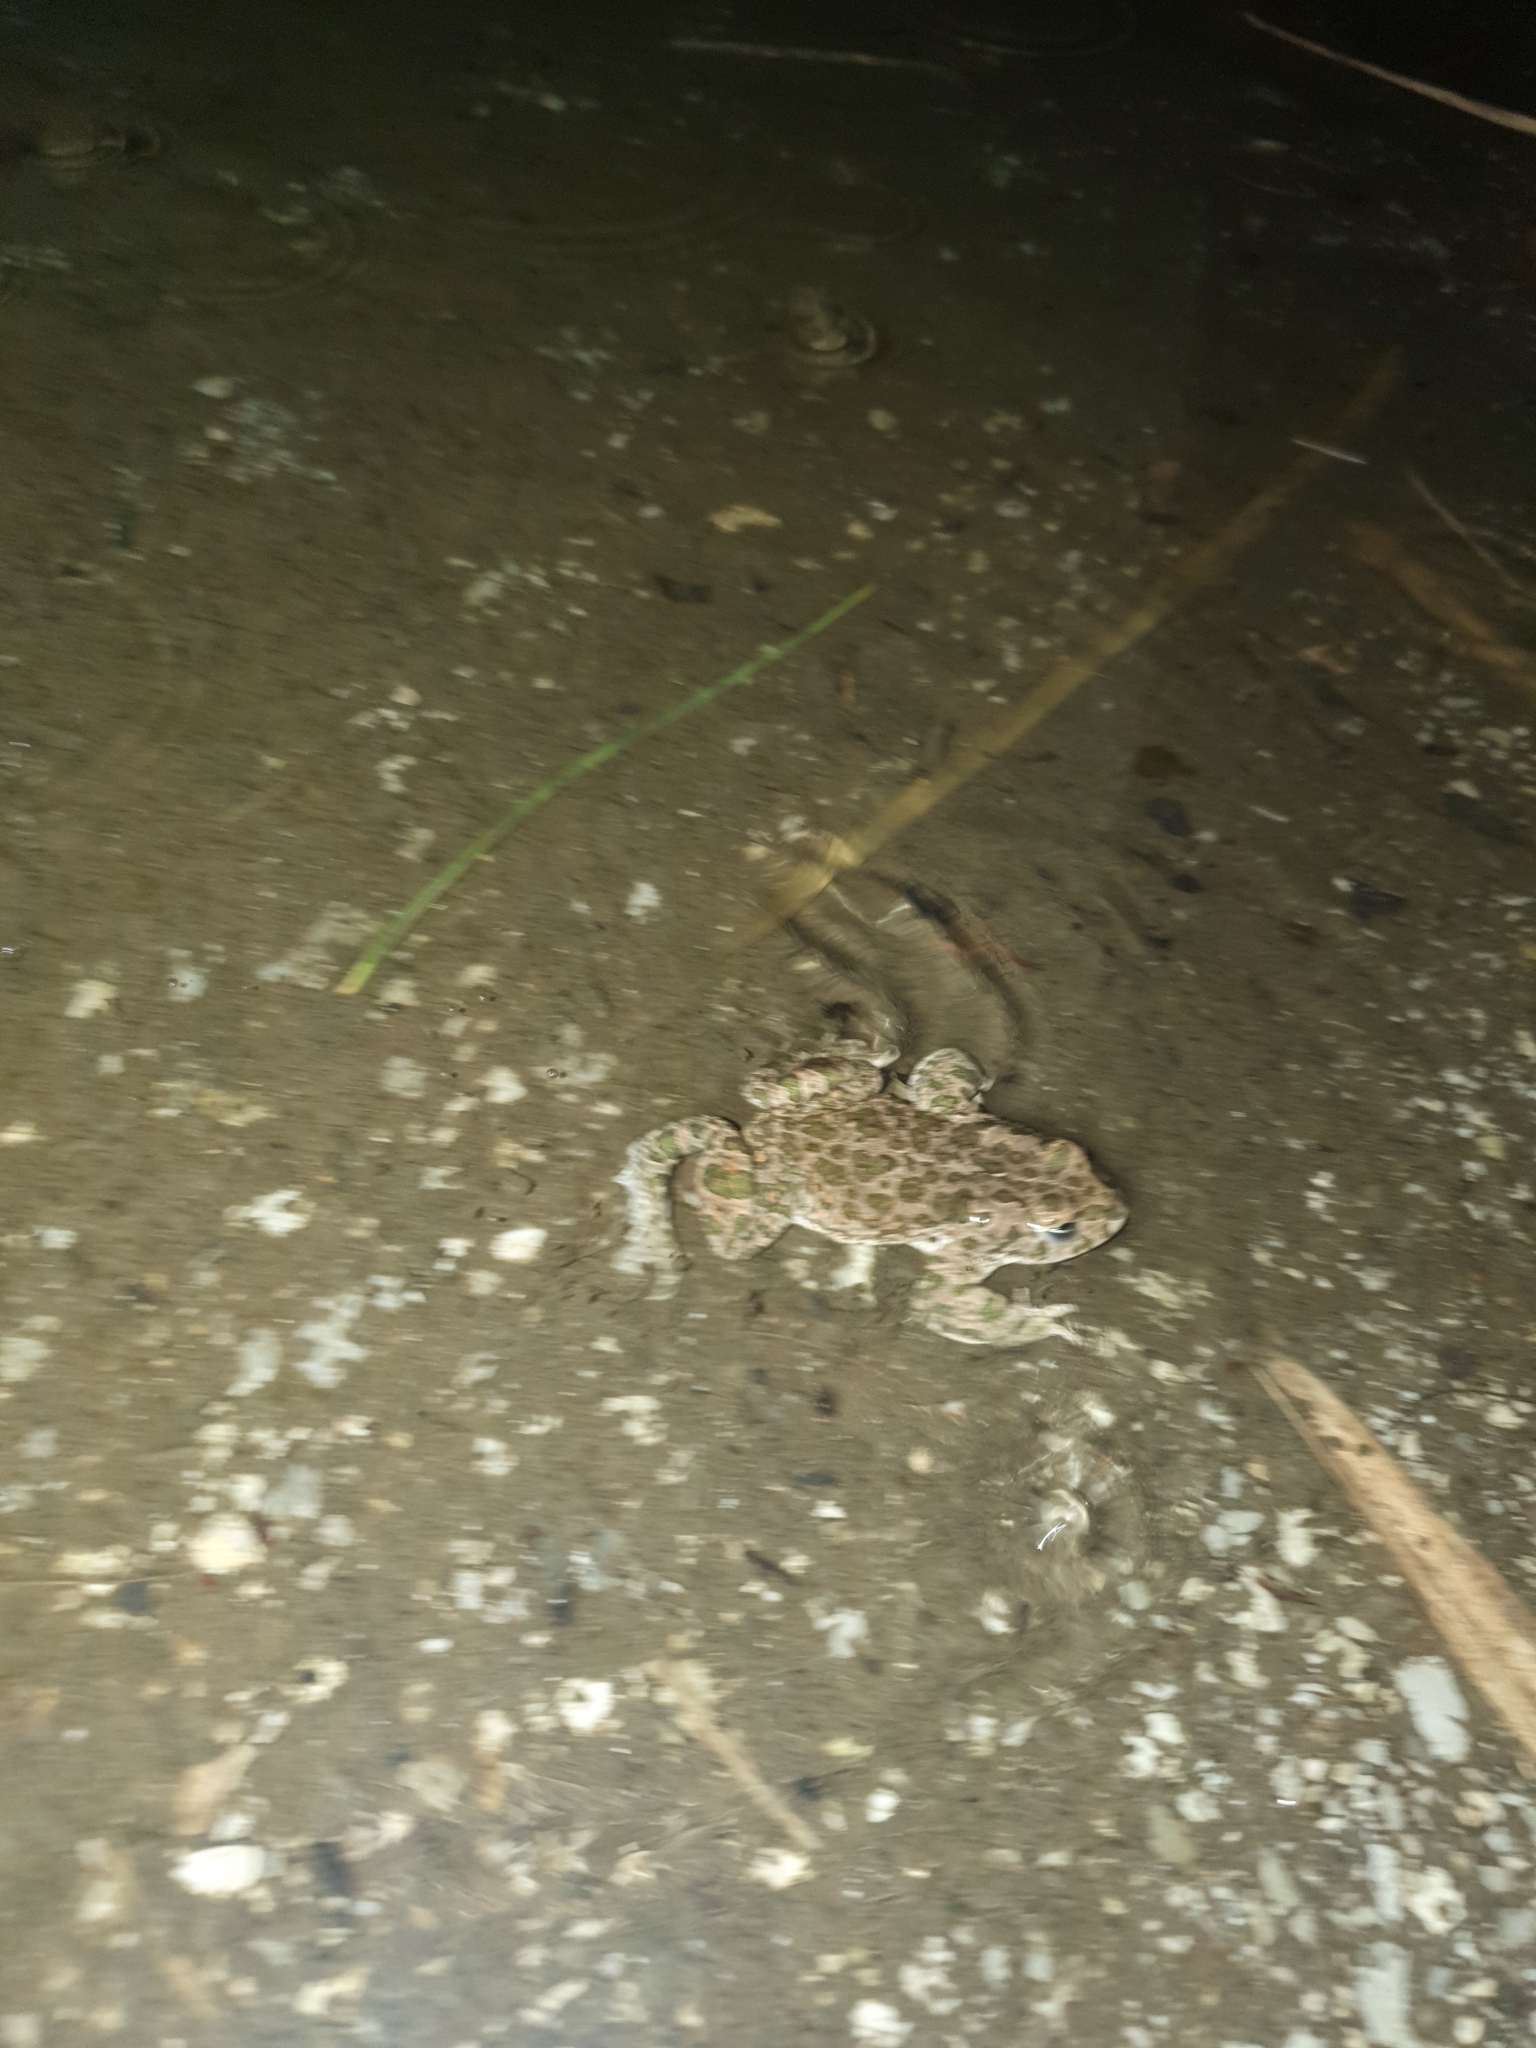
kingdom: Animalia
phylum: Chordata
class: Amphibia
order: Anura
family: Bufonidae
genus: Bufotes
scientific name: Bufotes viridis
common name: European green toad
